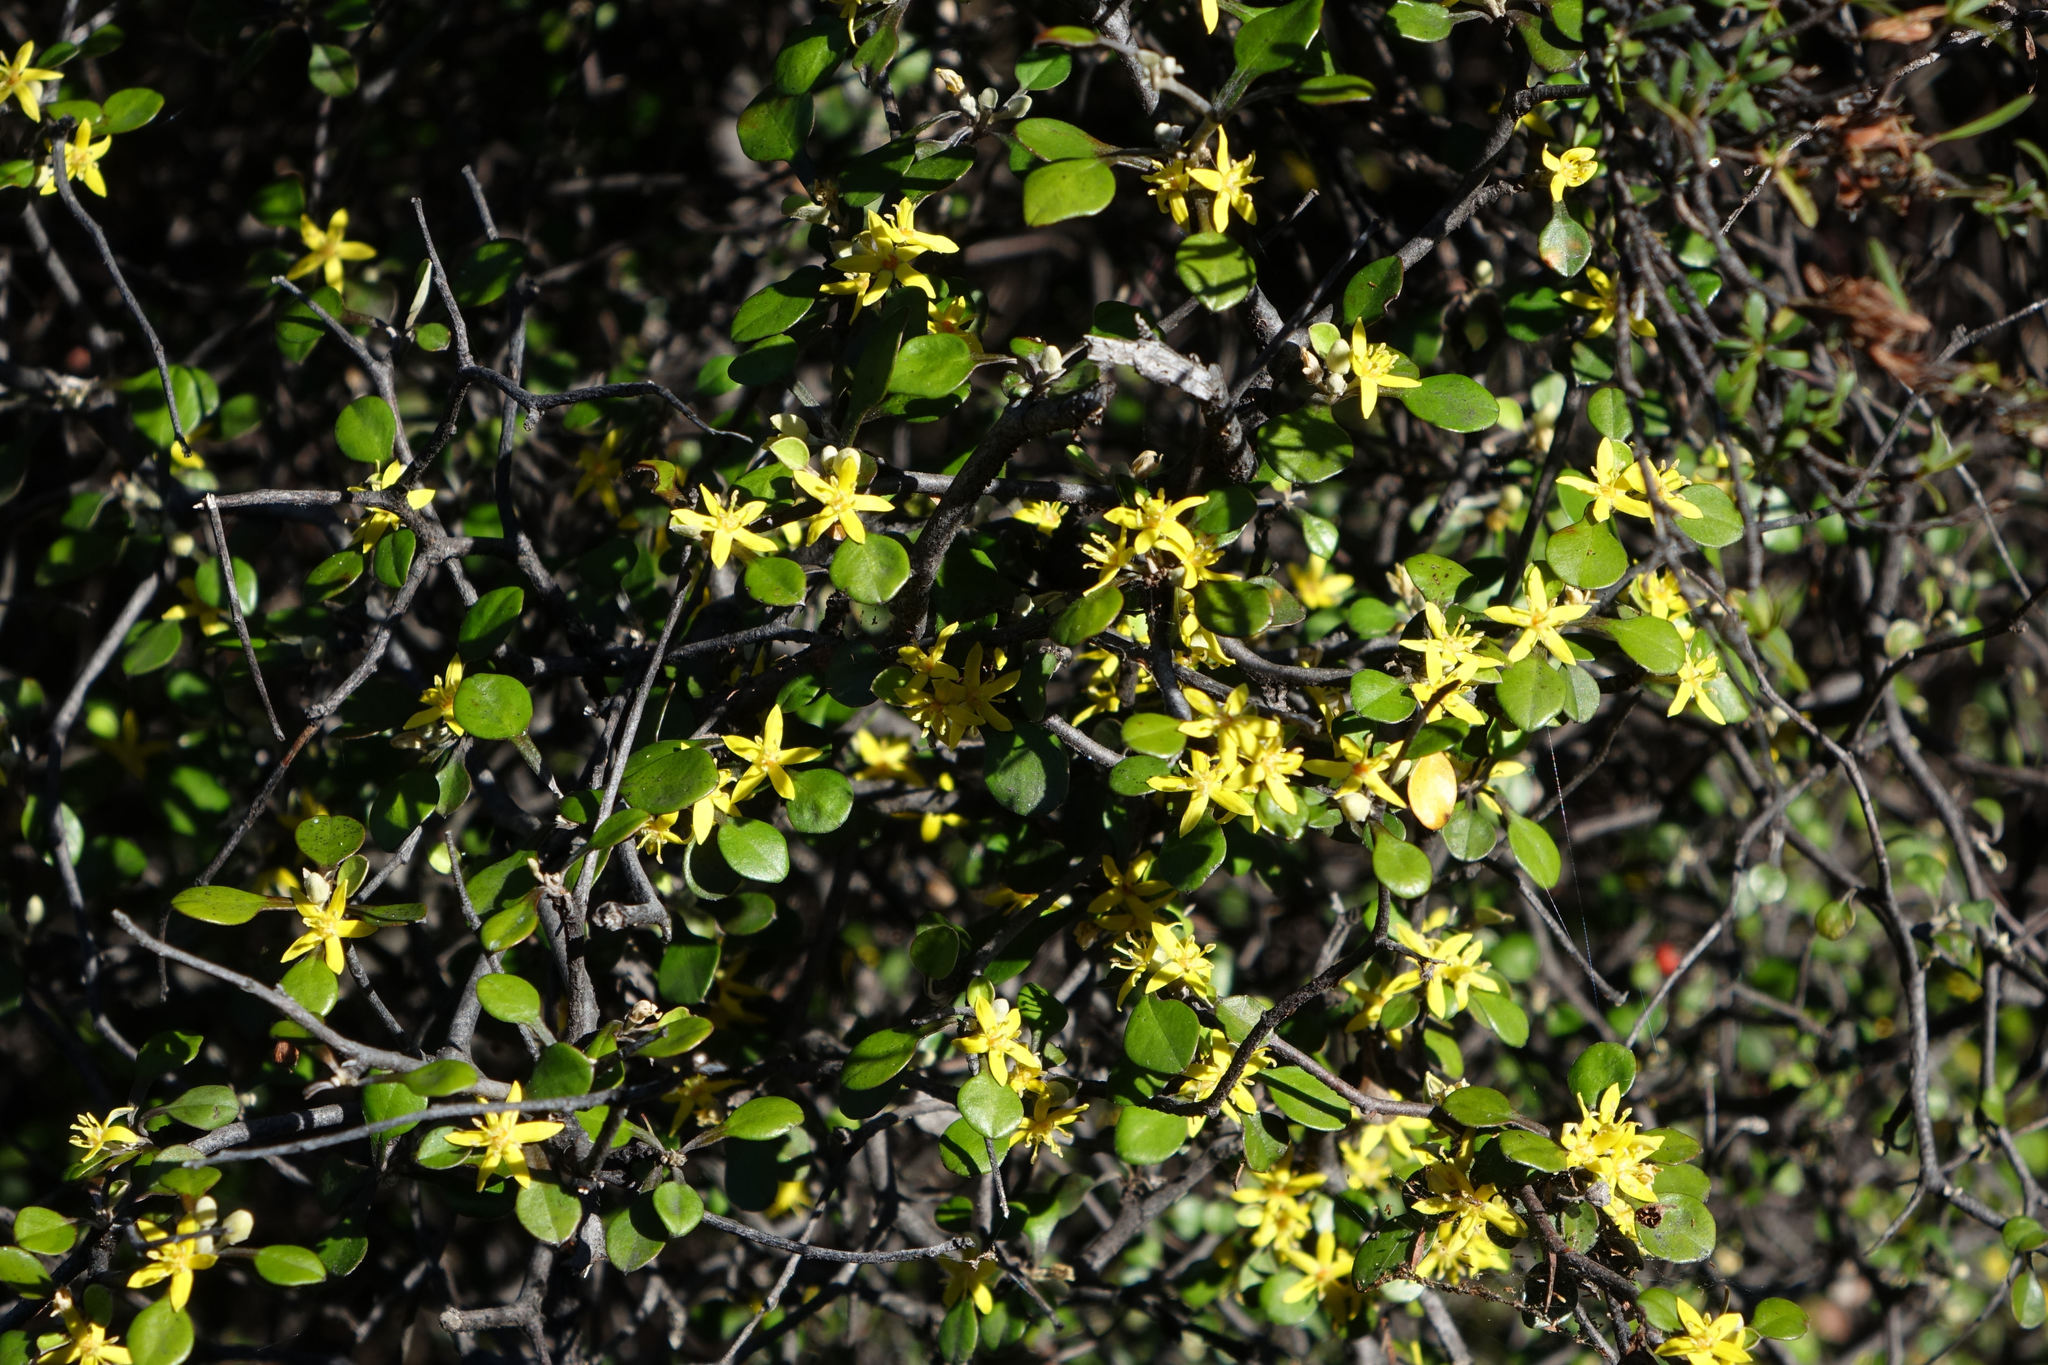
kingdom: Plantae
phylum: Tracheophyta
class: Magnoliopsida
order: Asterales
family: Argophyllaceae
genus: Corokia
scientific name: Corokia cotoneaster
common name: Wire nettingbush
